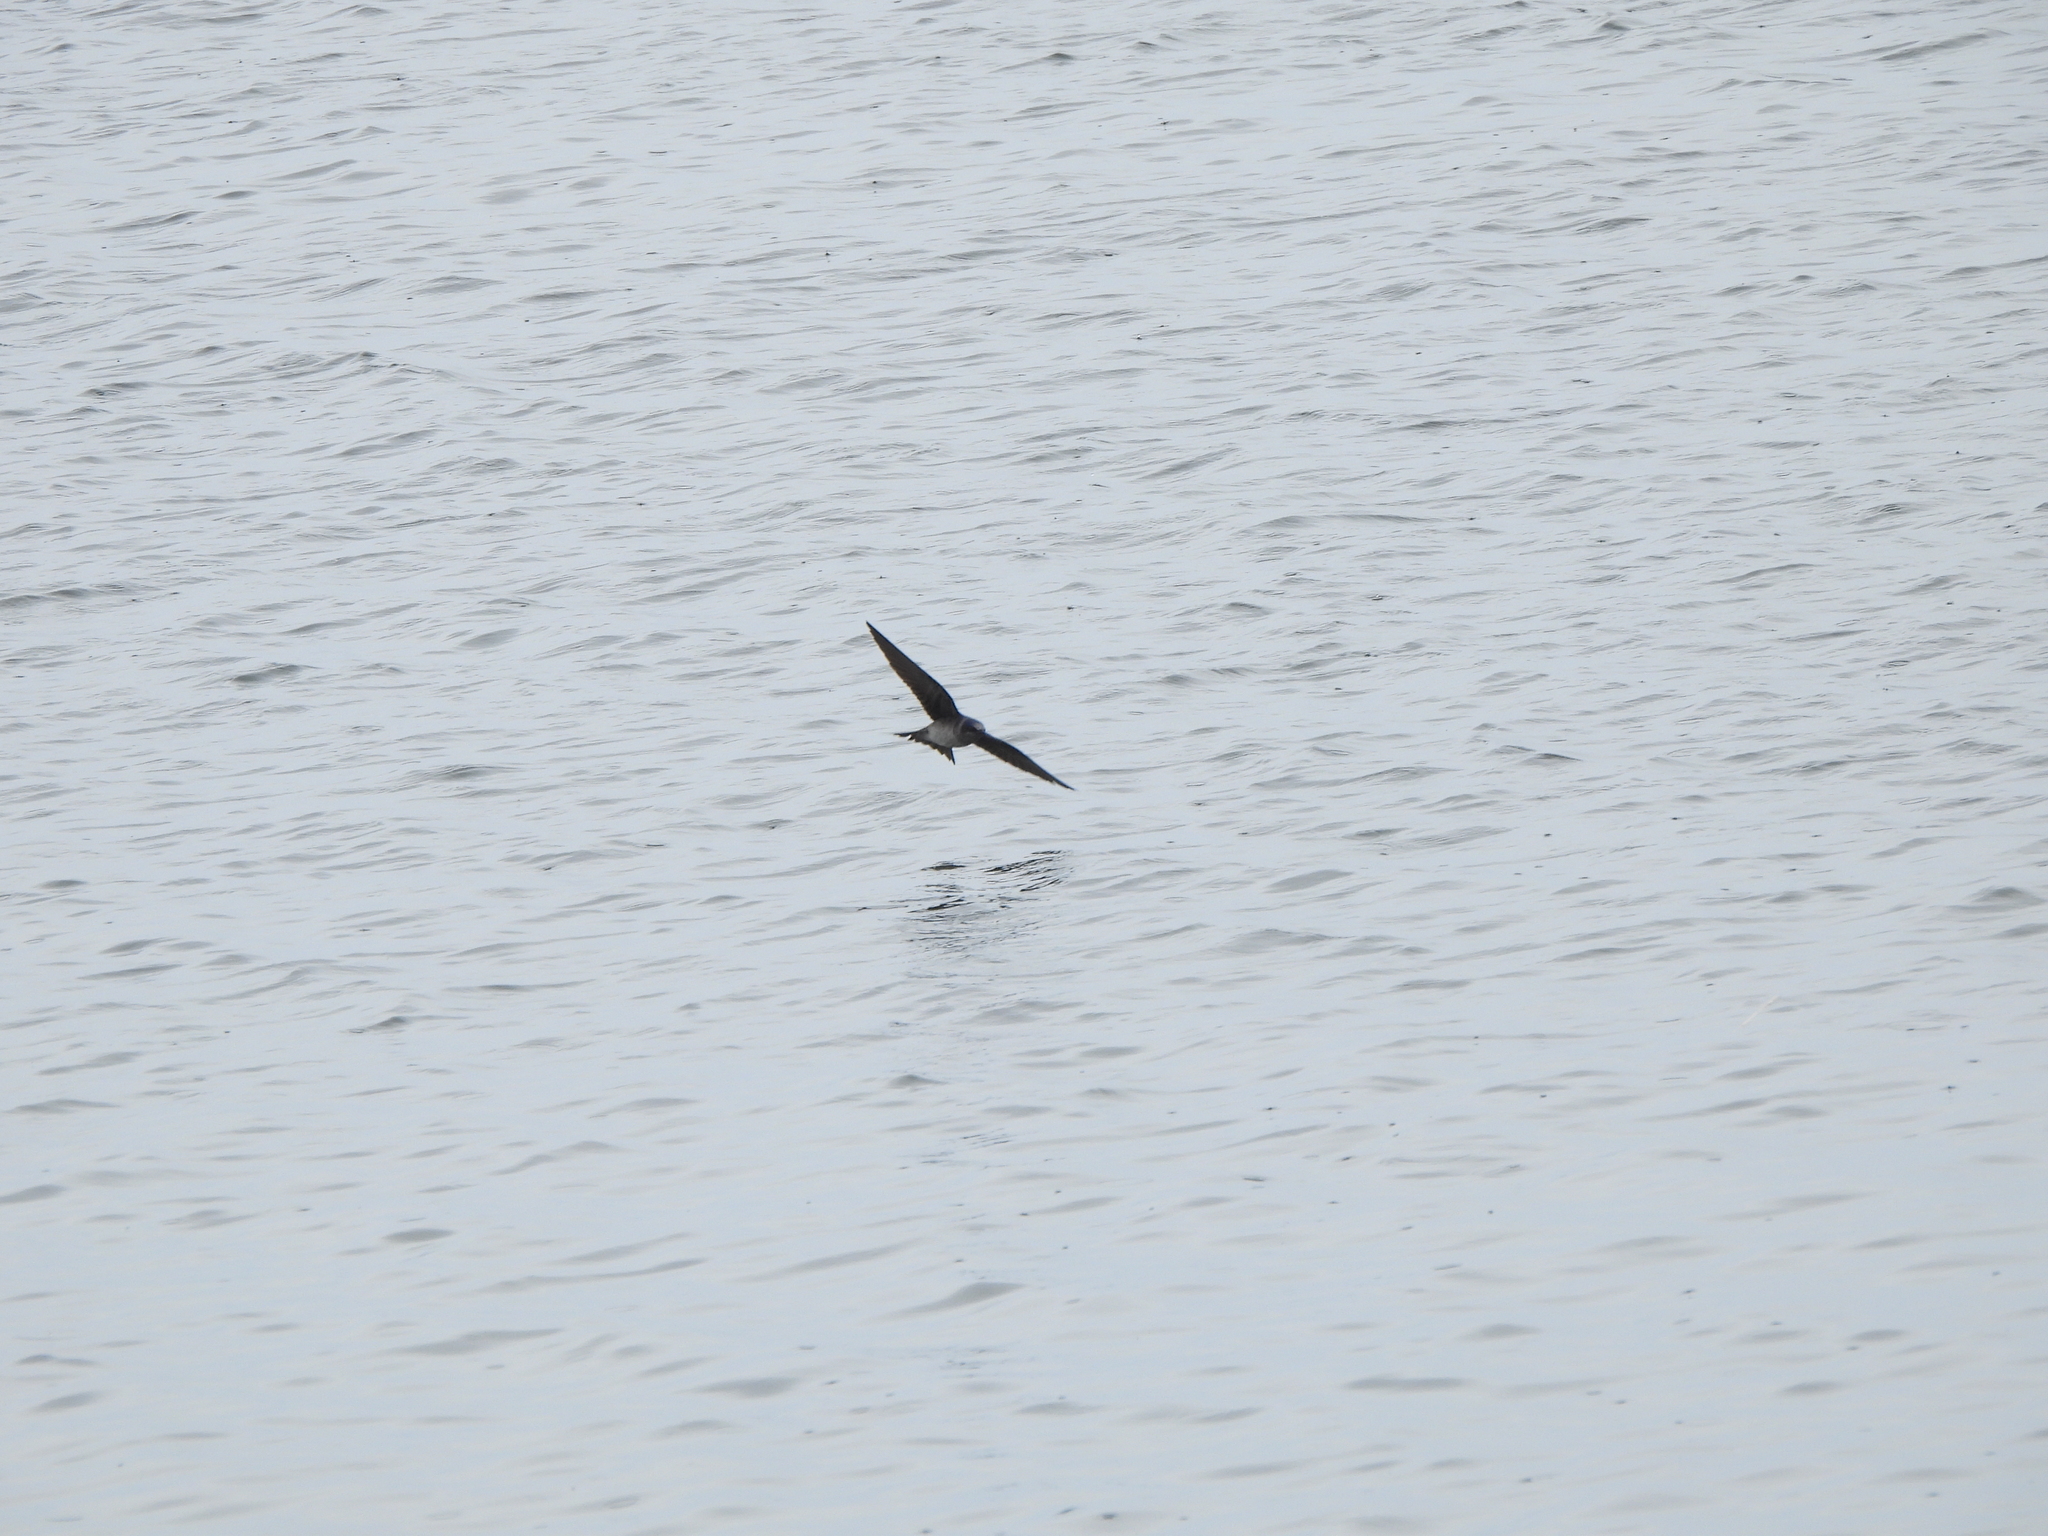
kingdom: Animalia
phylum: Chordata
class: Aves
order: Passeriformes
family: Hirundinidae
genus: Progne
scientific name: Progne subis
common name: Purple martin
